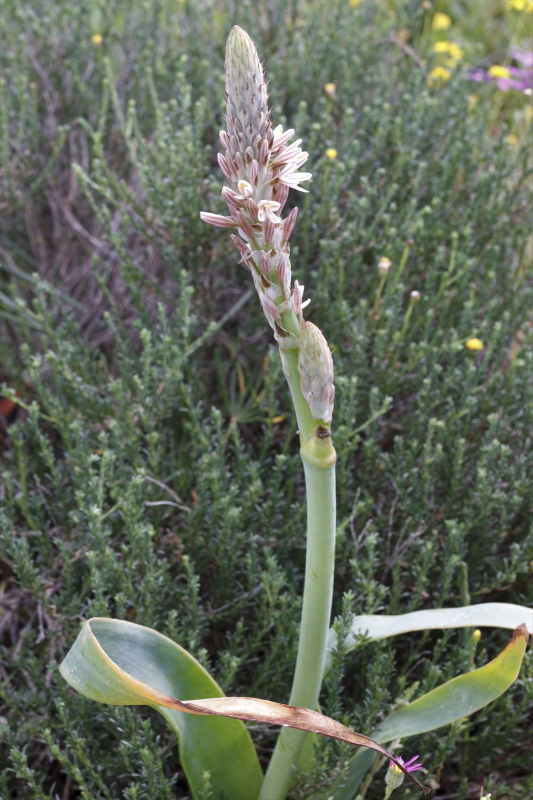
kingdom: Plantae
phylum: Tracheophyta
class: Liliopsida
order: Asparagales
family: Asphodelaceae
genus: Trachyandra
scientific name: Trachyandra falcata
